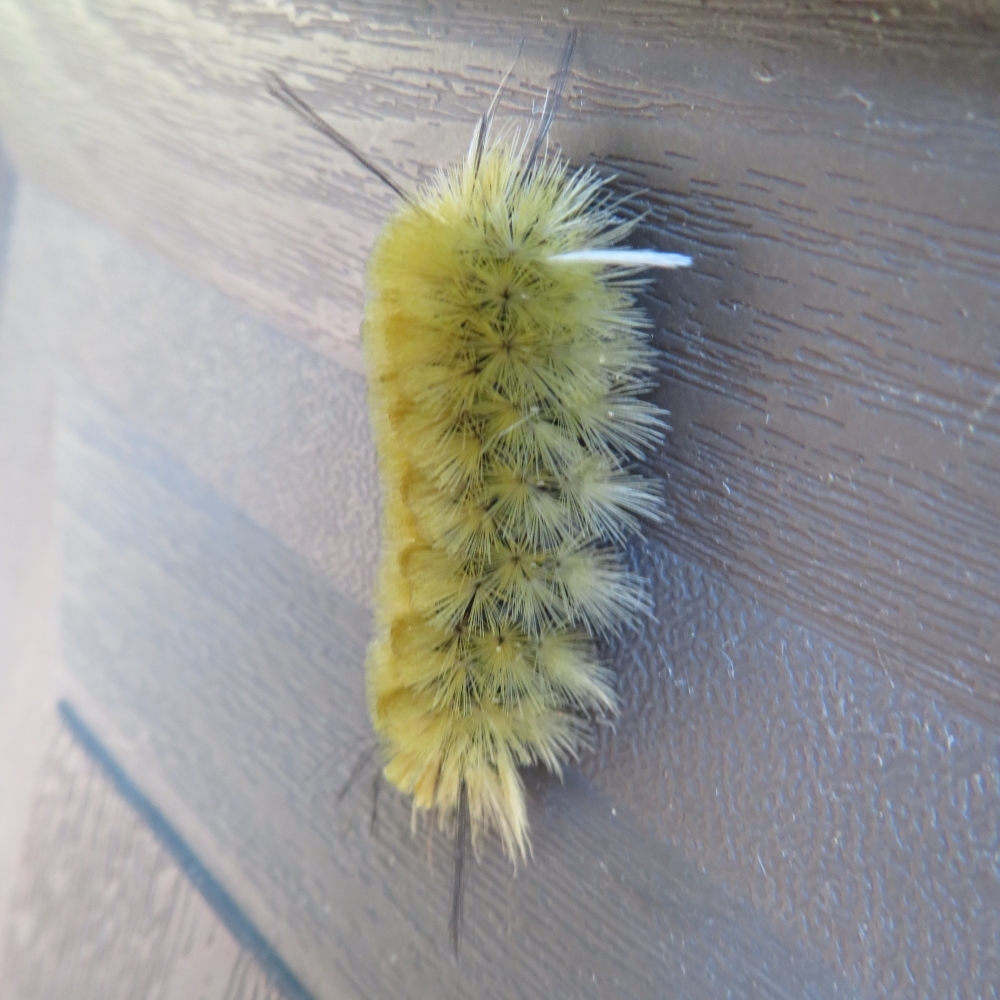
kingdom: Animalia
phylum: Arthropoda
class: Insecta
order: Lepidoptera
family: Erebidae
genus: Halysidota
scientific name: Halysidota tessellaris
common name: Banded tussock moth
